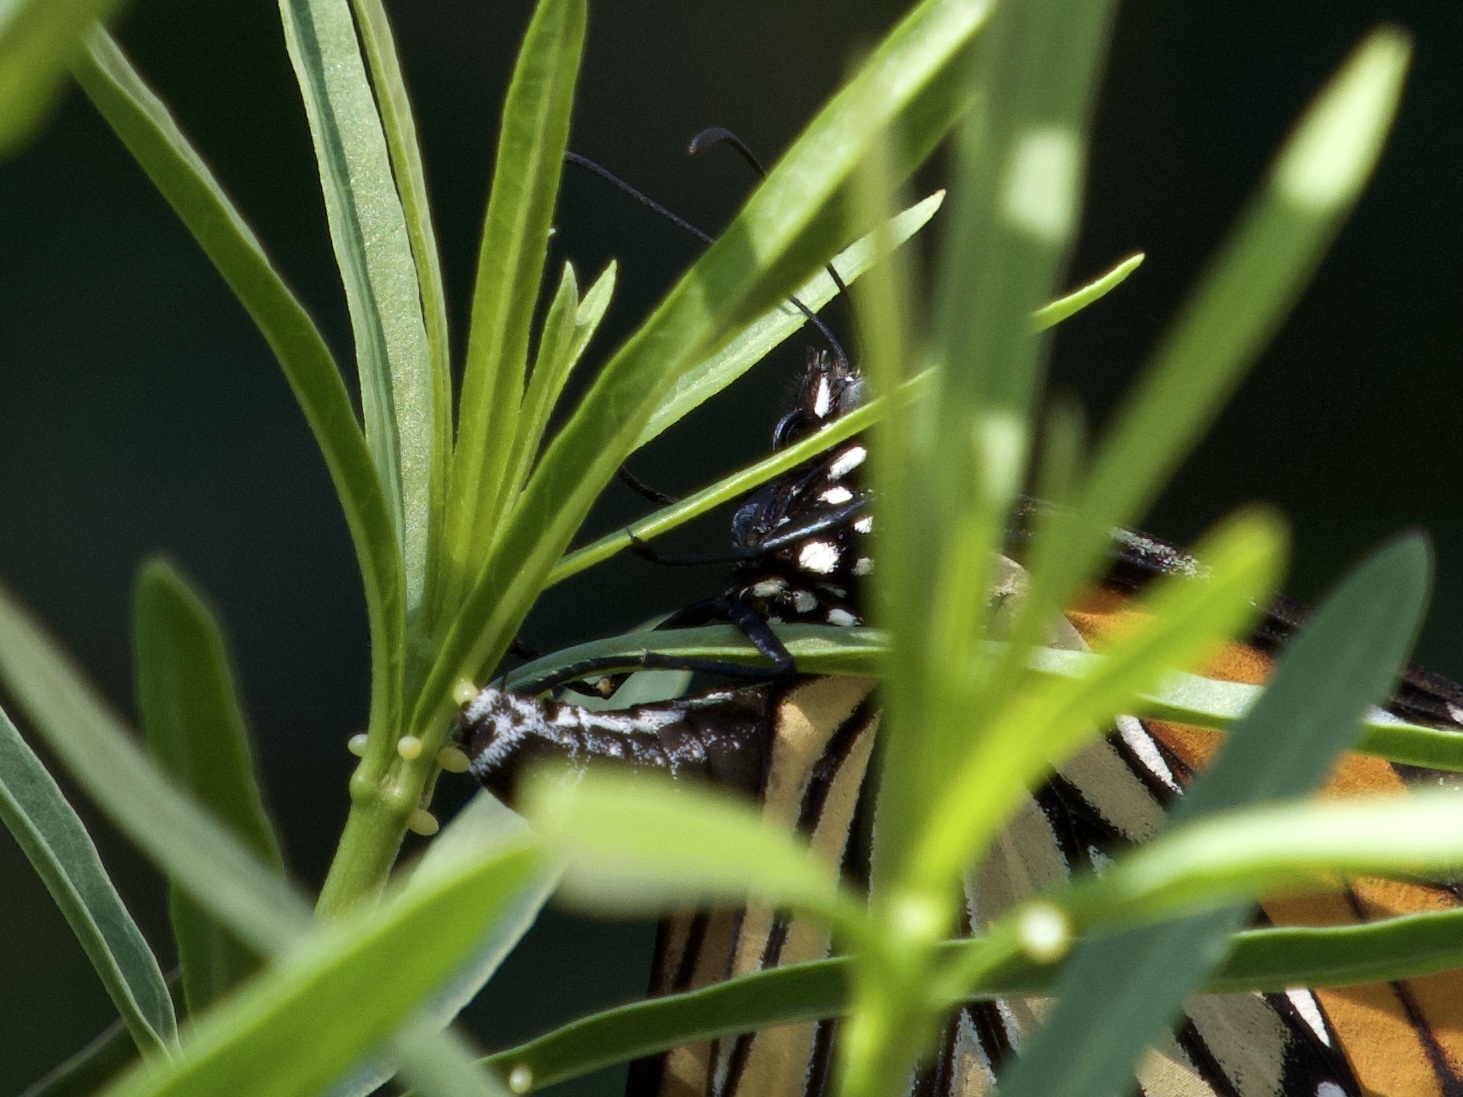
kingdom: Animalia
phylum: Arthropoda
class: Insecta
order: Lepidoptera
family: Nymphalidae
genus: Danaus
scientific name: Danaus plexippus
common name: Monarch
